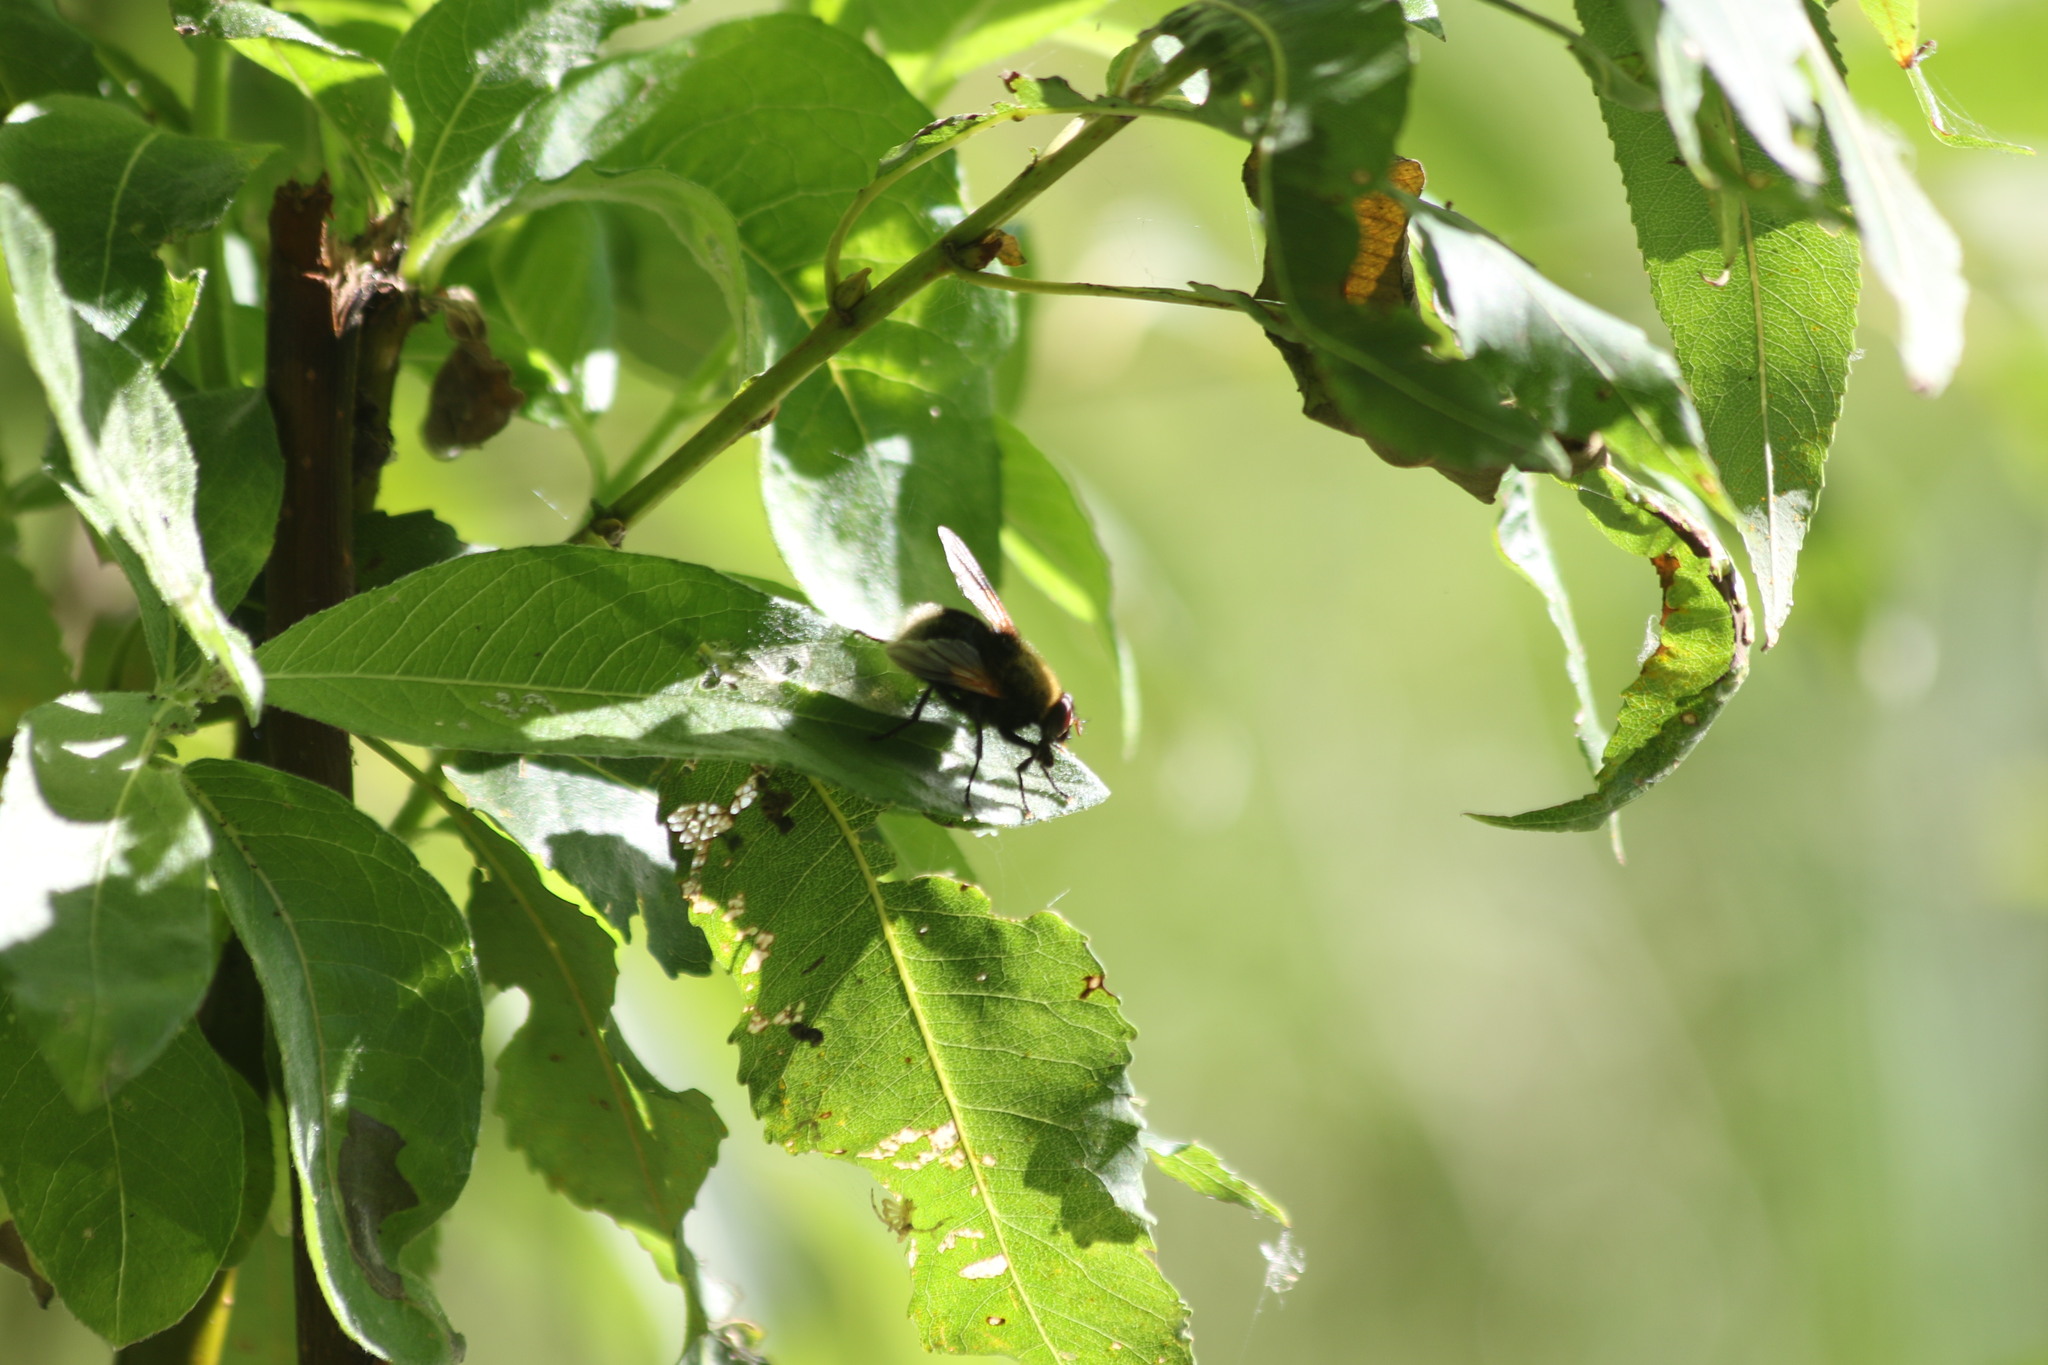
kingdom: Animalia
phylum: Arthropoda
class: Insecta
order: Diptera
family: Muscidae
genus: Mesembrina
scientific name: Mesembrina mystacea
